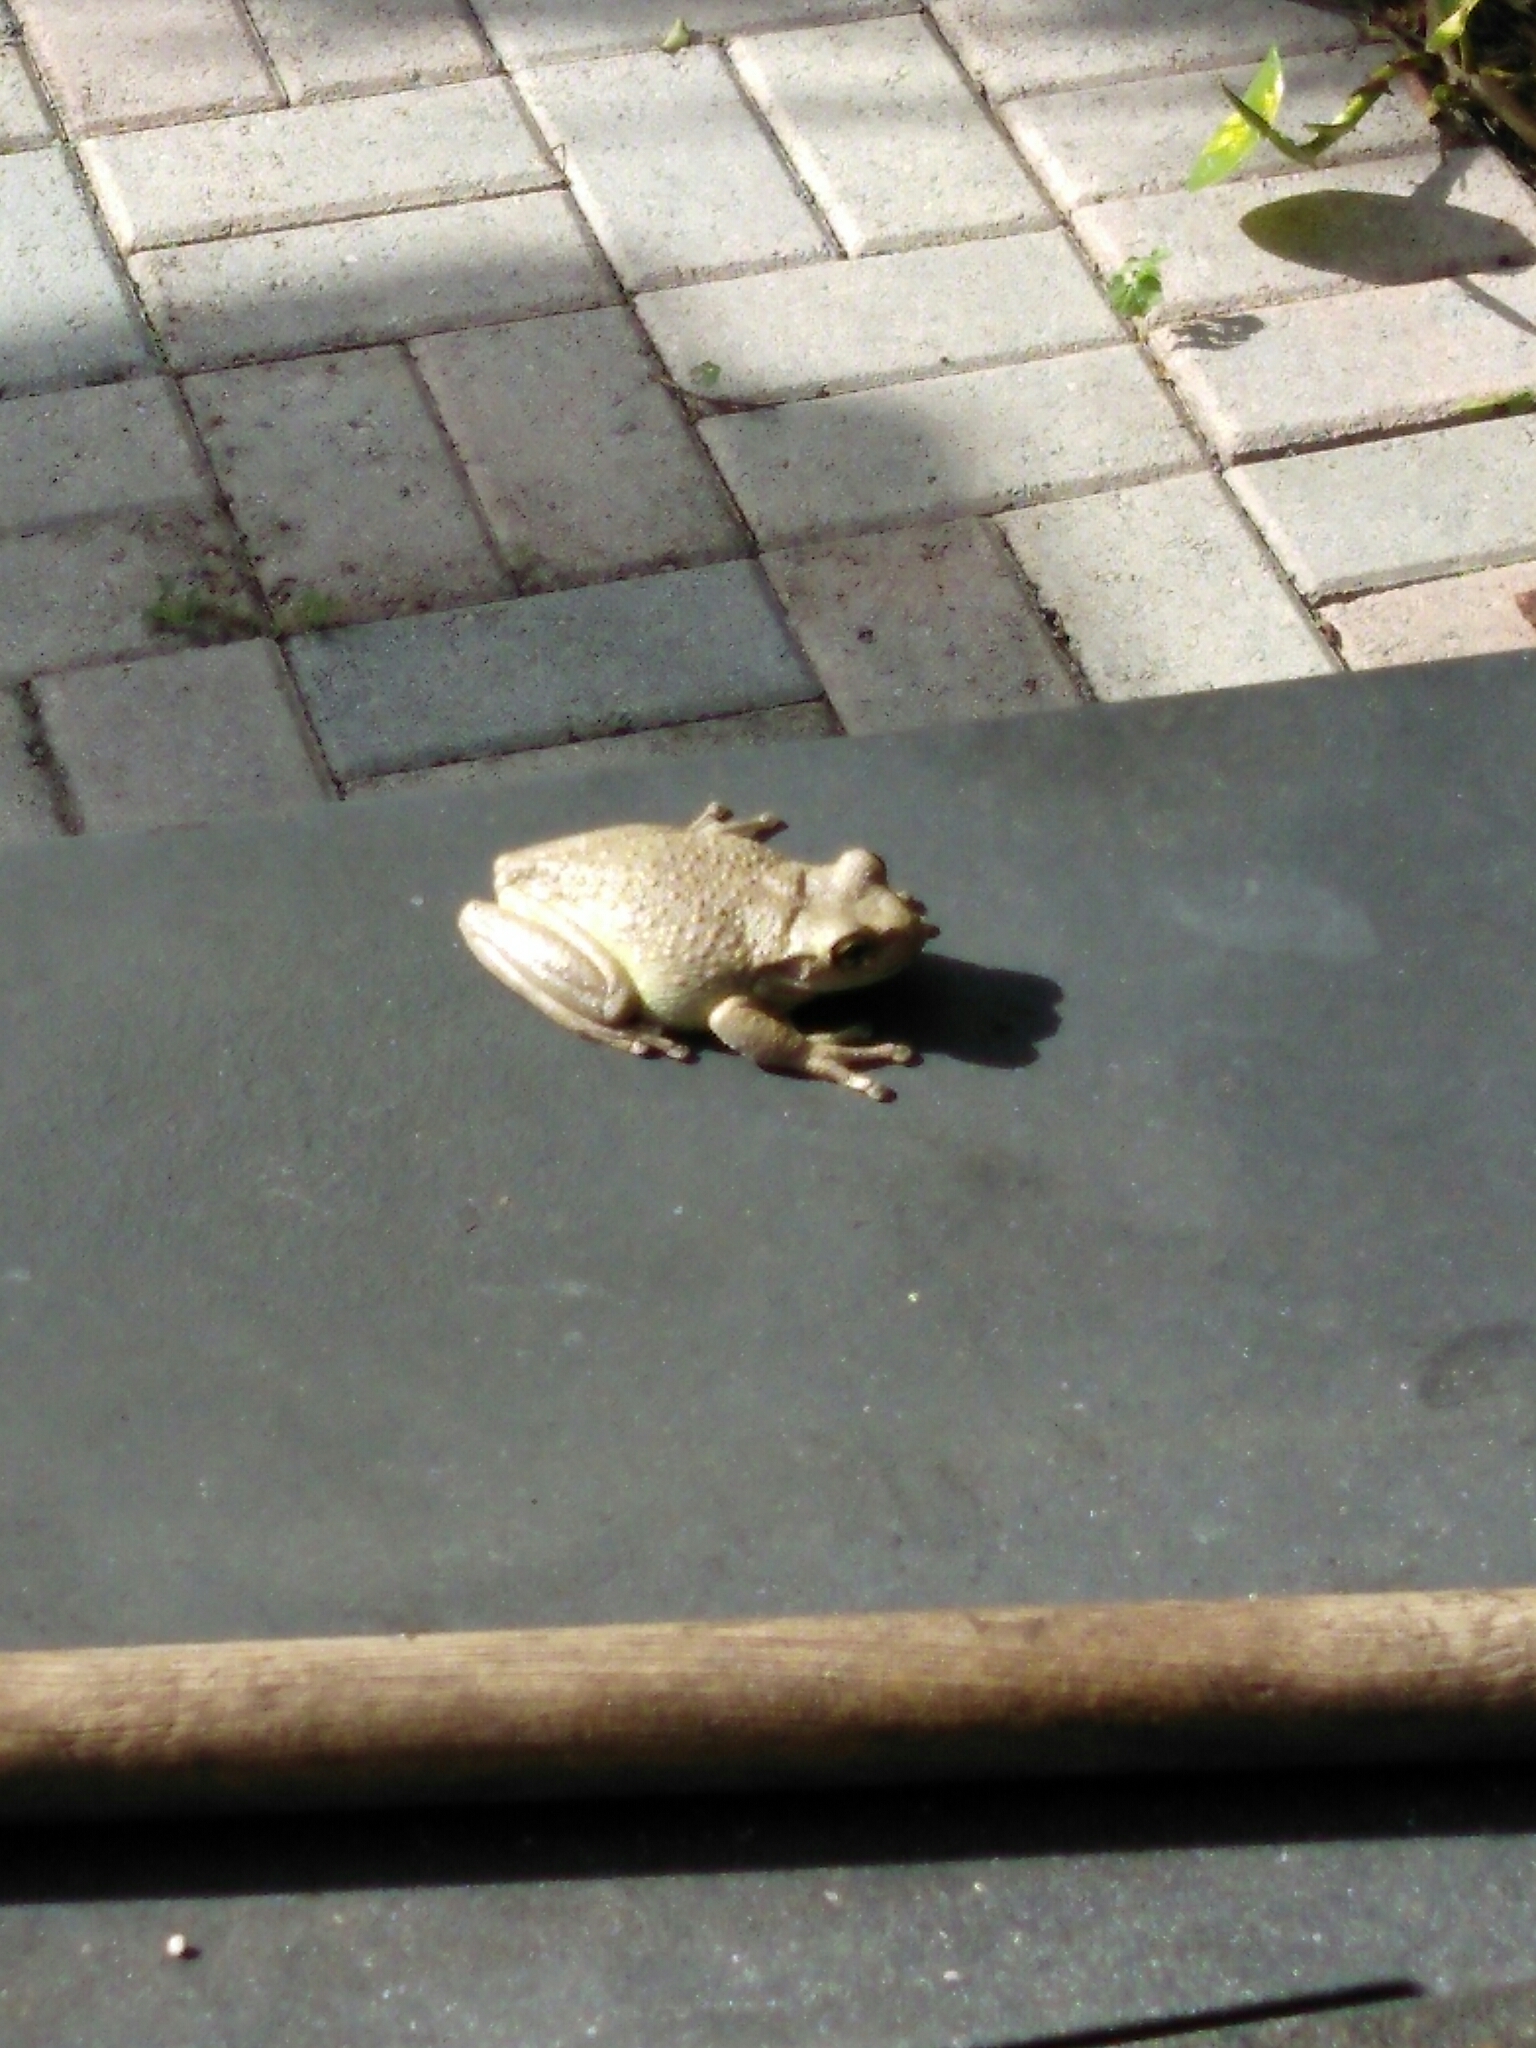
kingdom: Animalia
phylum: Chordata
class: Amphibia
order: Anura
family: Hylidae
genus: Osteopilus
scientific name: Osteopilus septentrionalis
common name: Cuban treefrog
